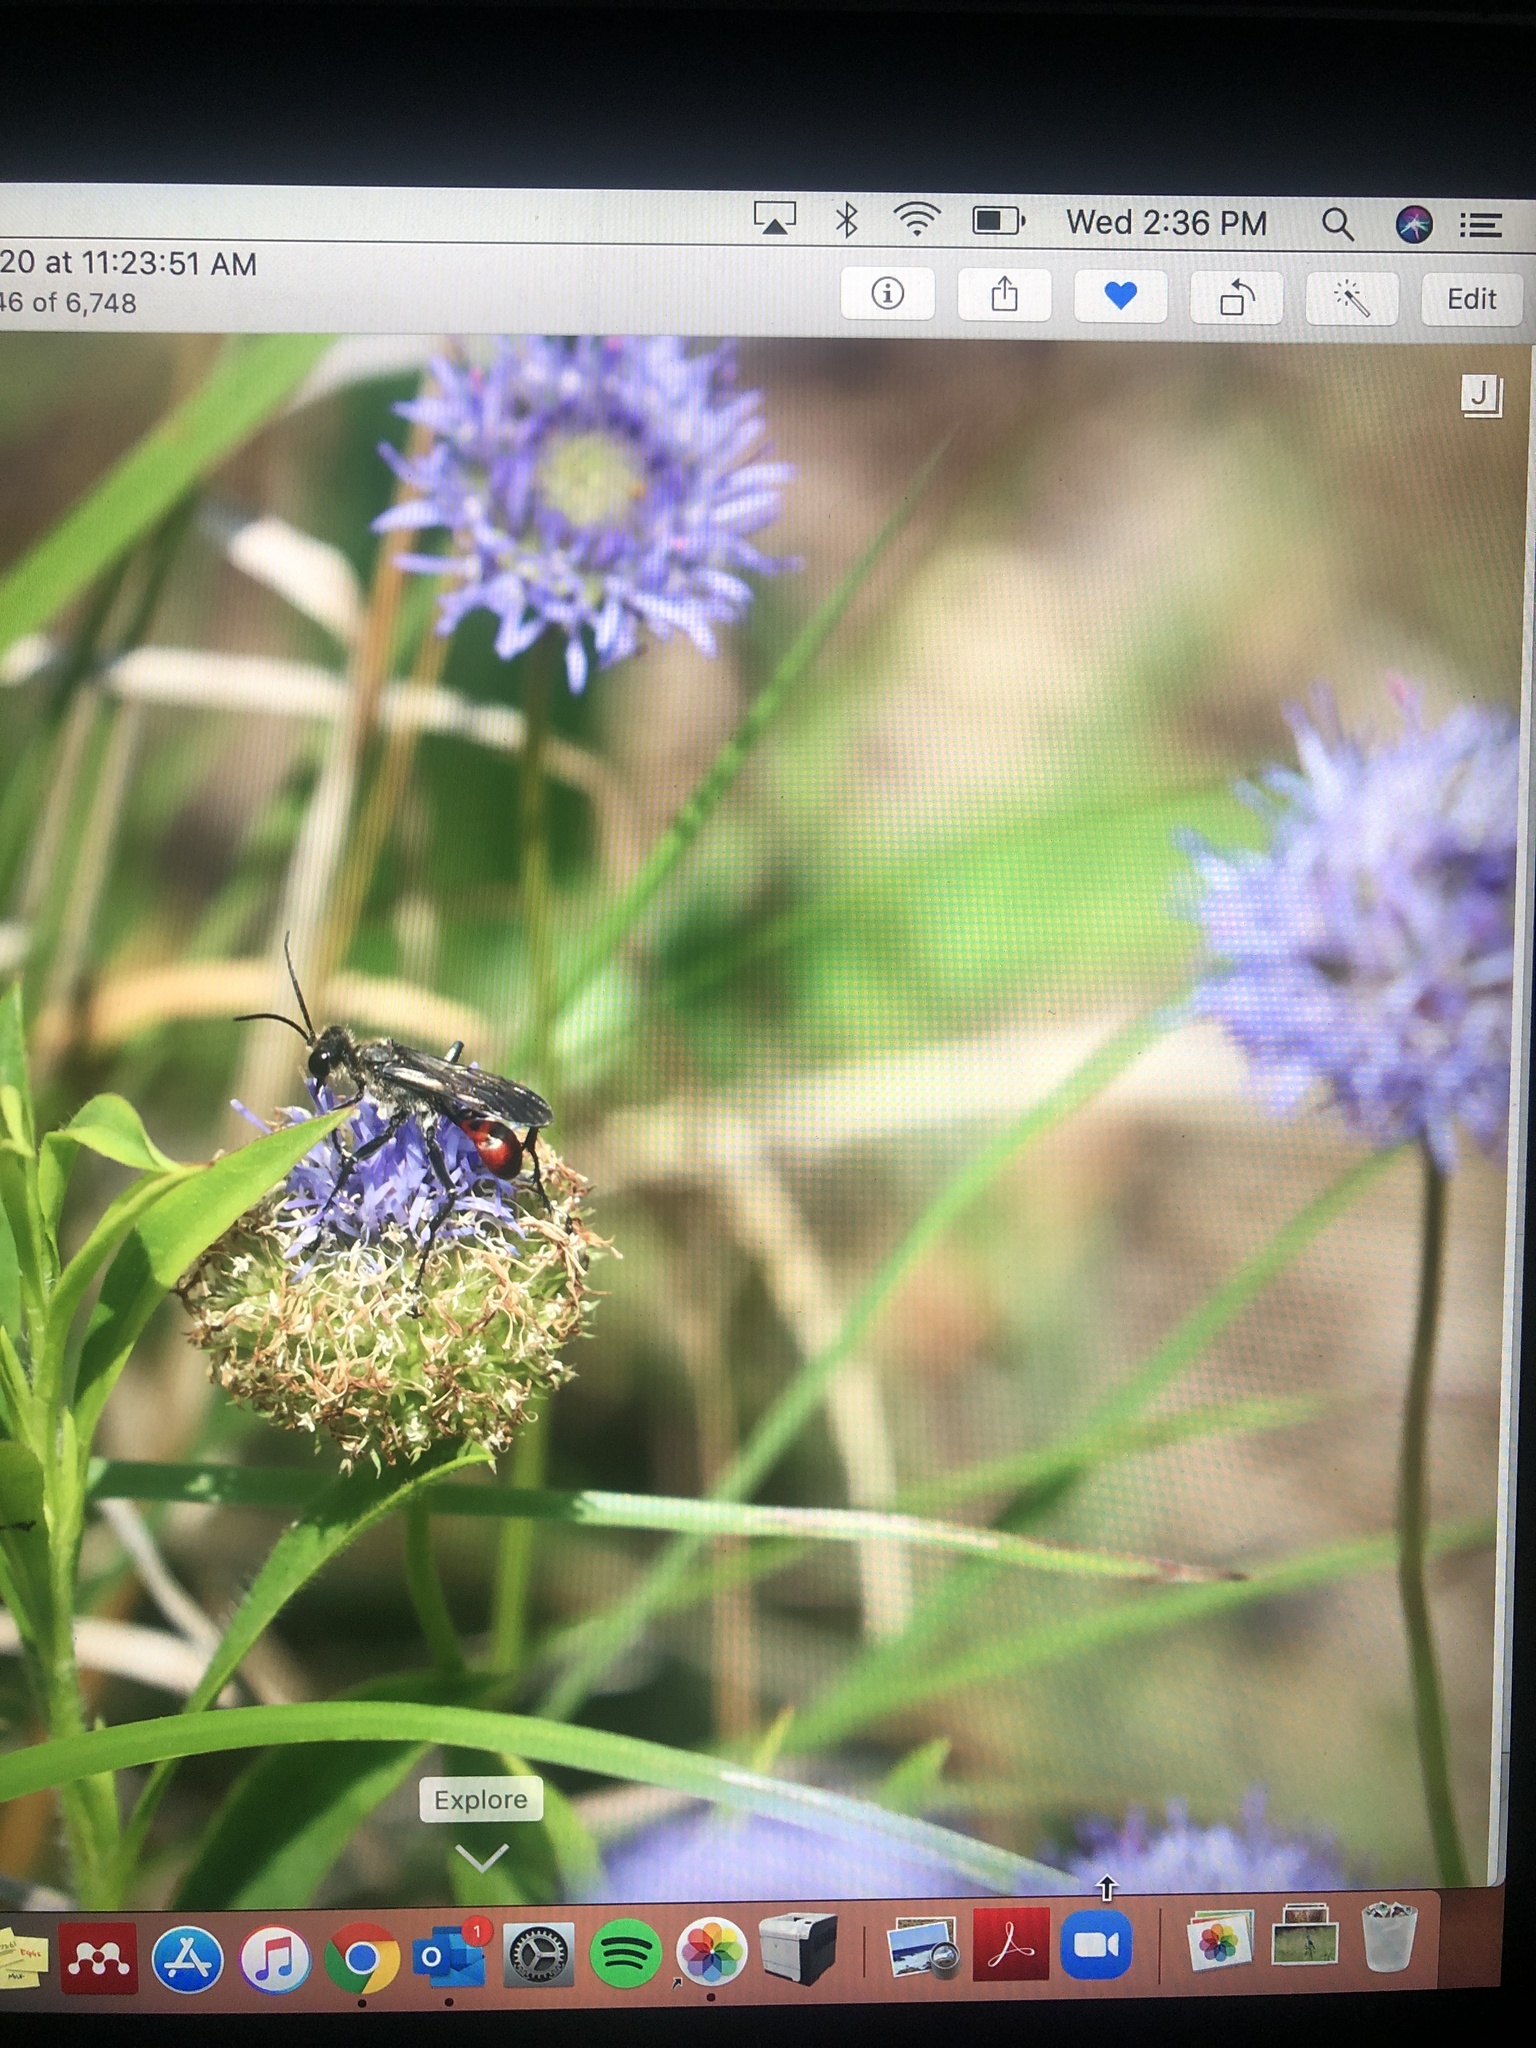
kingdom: Plantae
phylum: Tracheophyta
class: Magnoliopsida
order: Asterales
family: Campanulaceae
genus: Jasione
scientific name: Jasione montana
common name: Sheep's-bit
